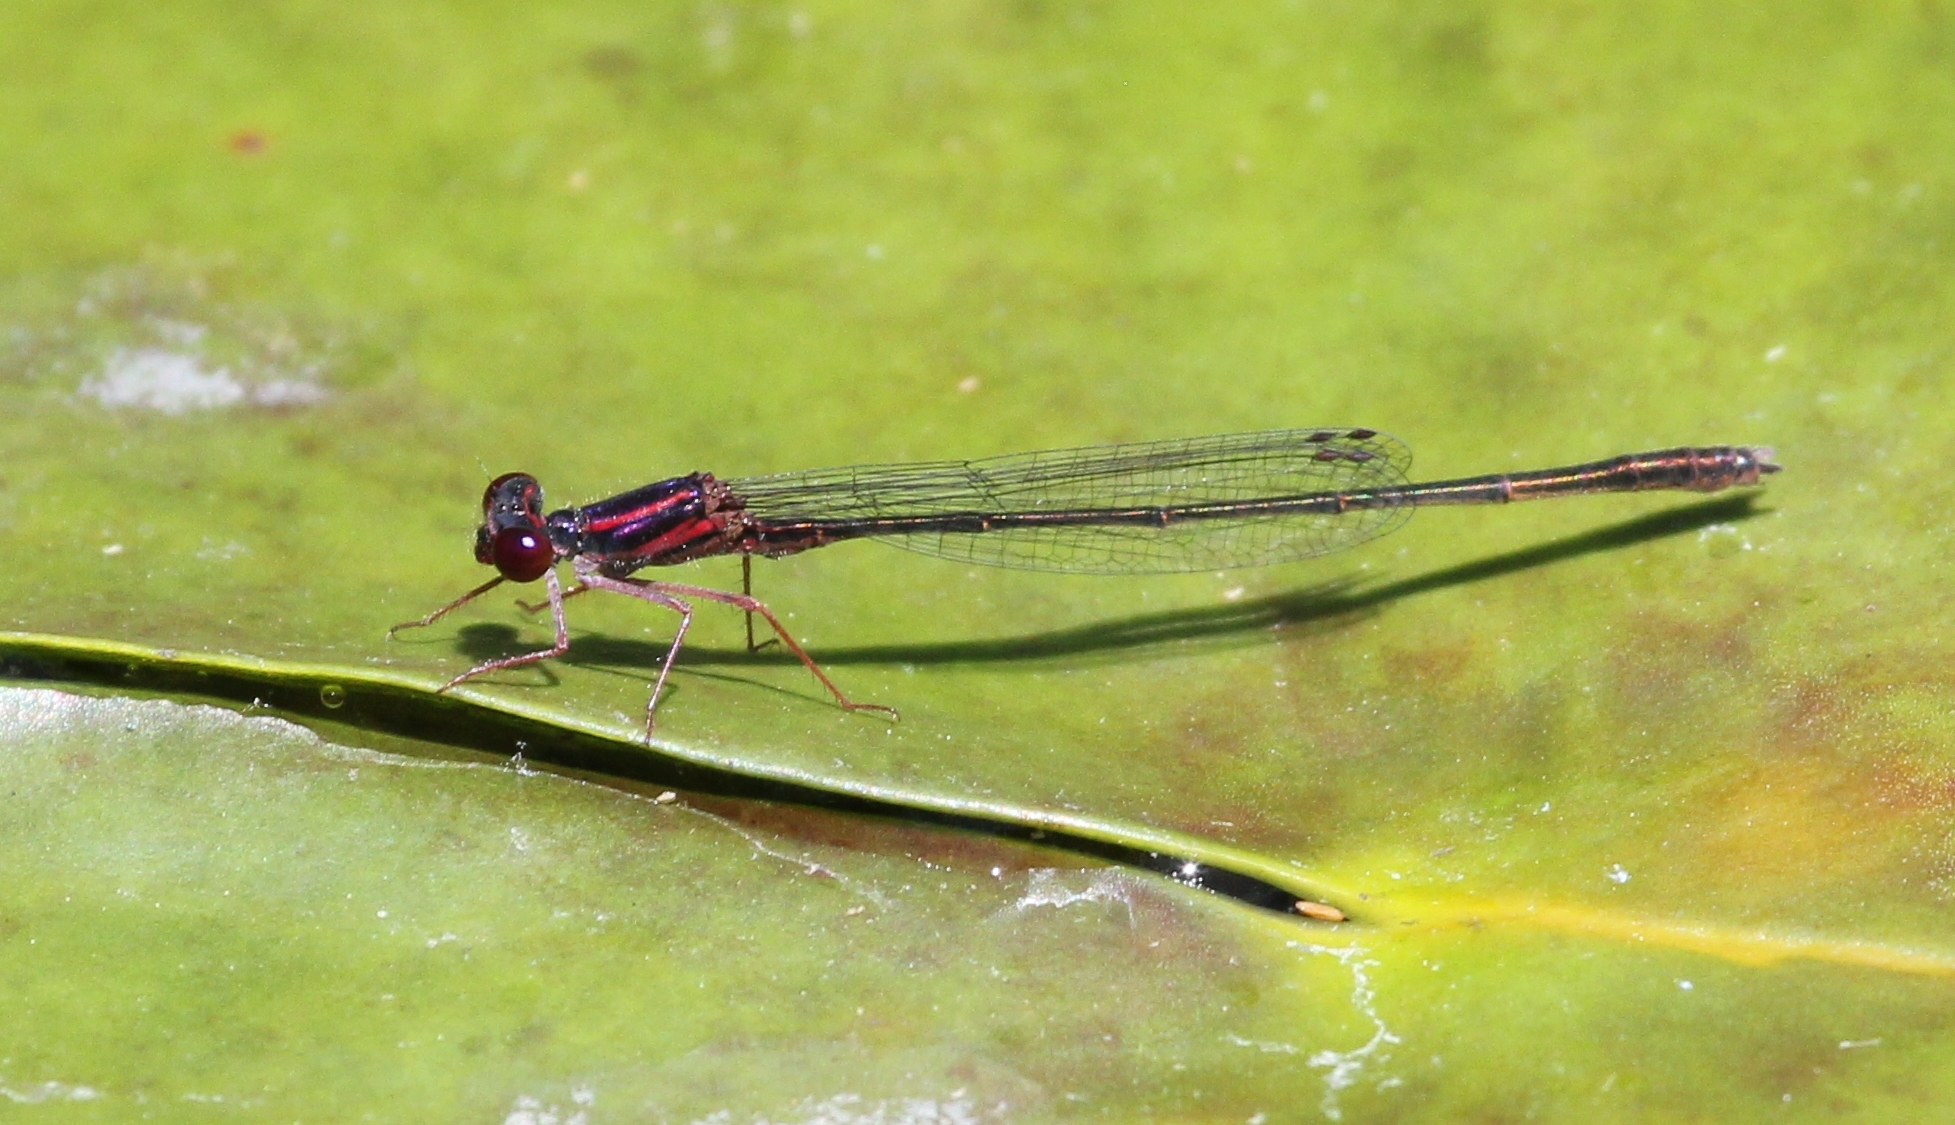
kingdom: Animalia
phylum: Arthropoda
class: Insecta
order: Odonata
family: Coenagrionidae
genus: Enallagma
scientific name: Enallagma dubium
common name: Burgundy bluet
